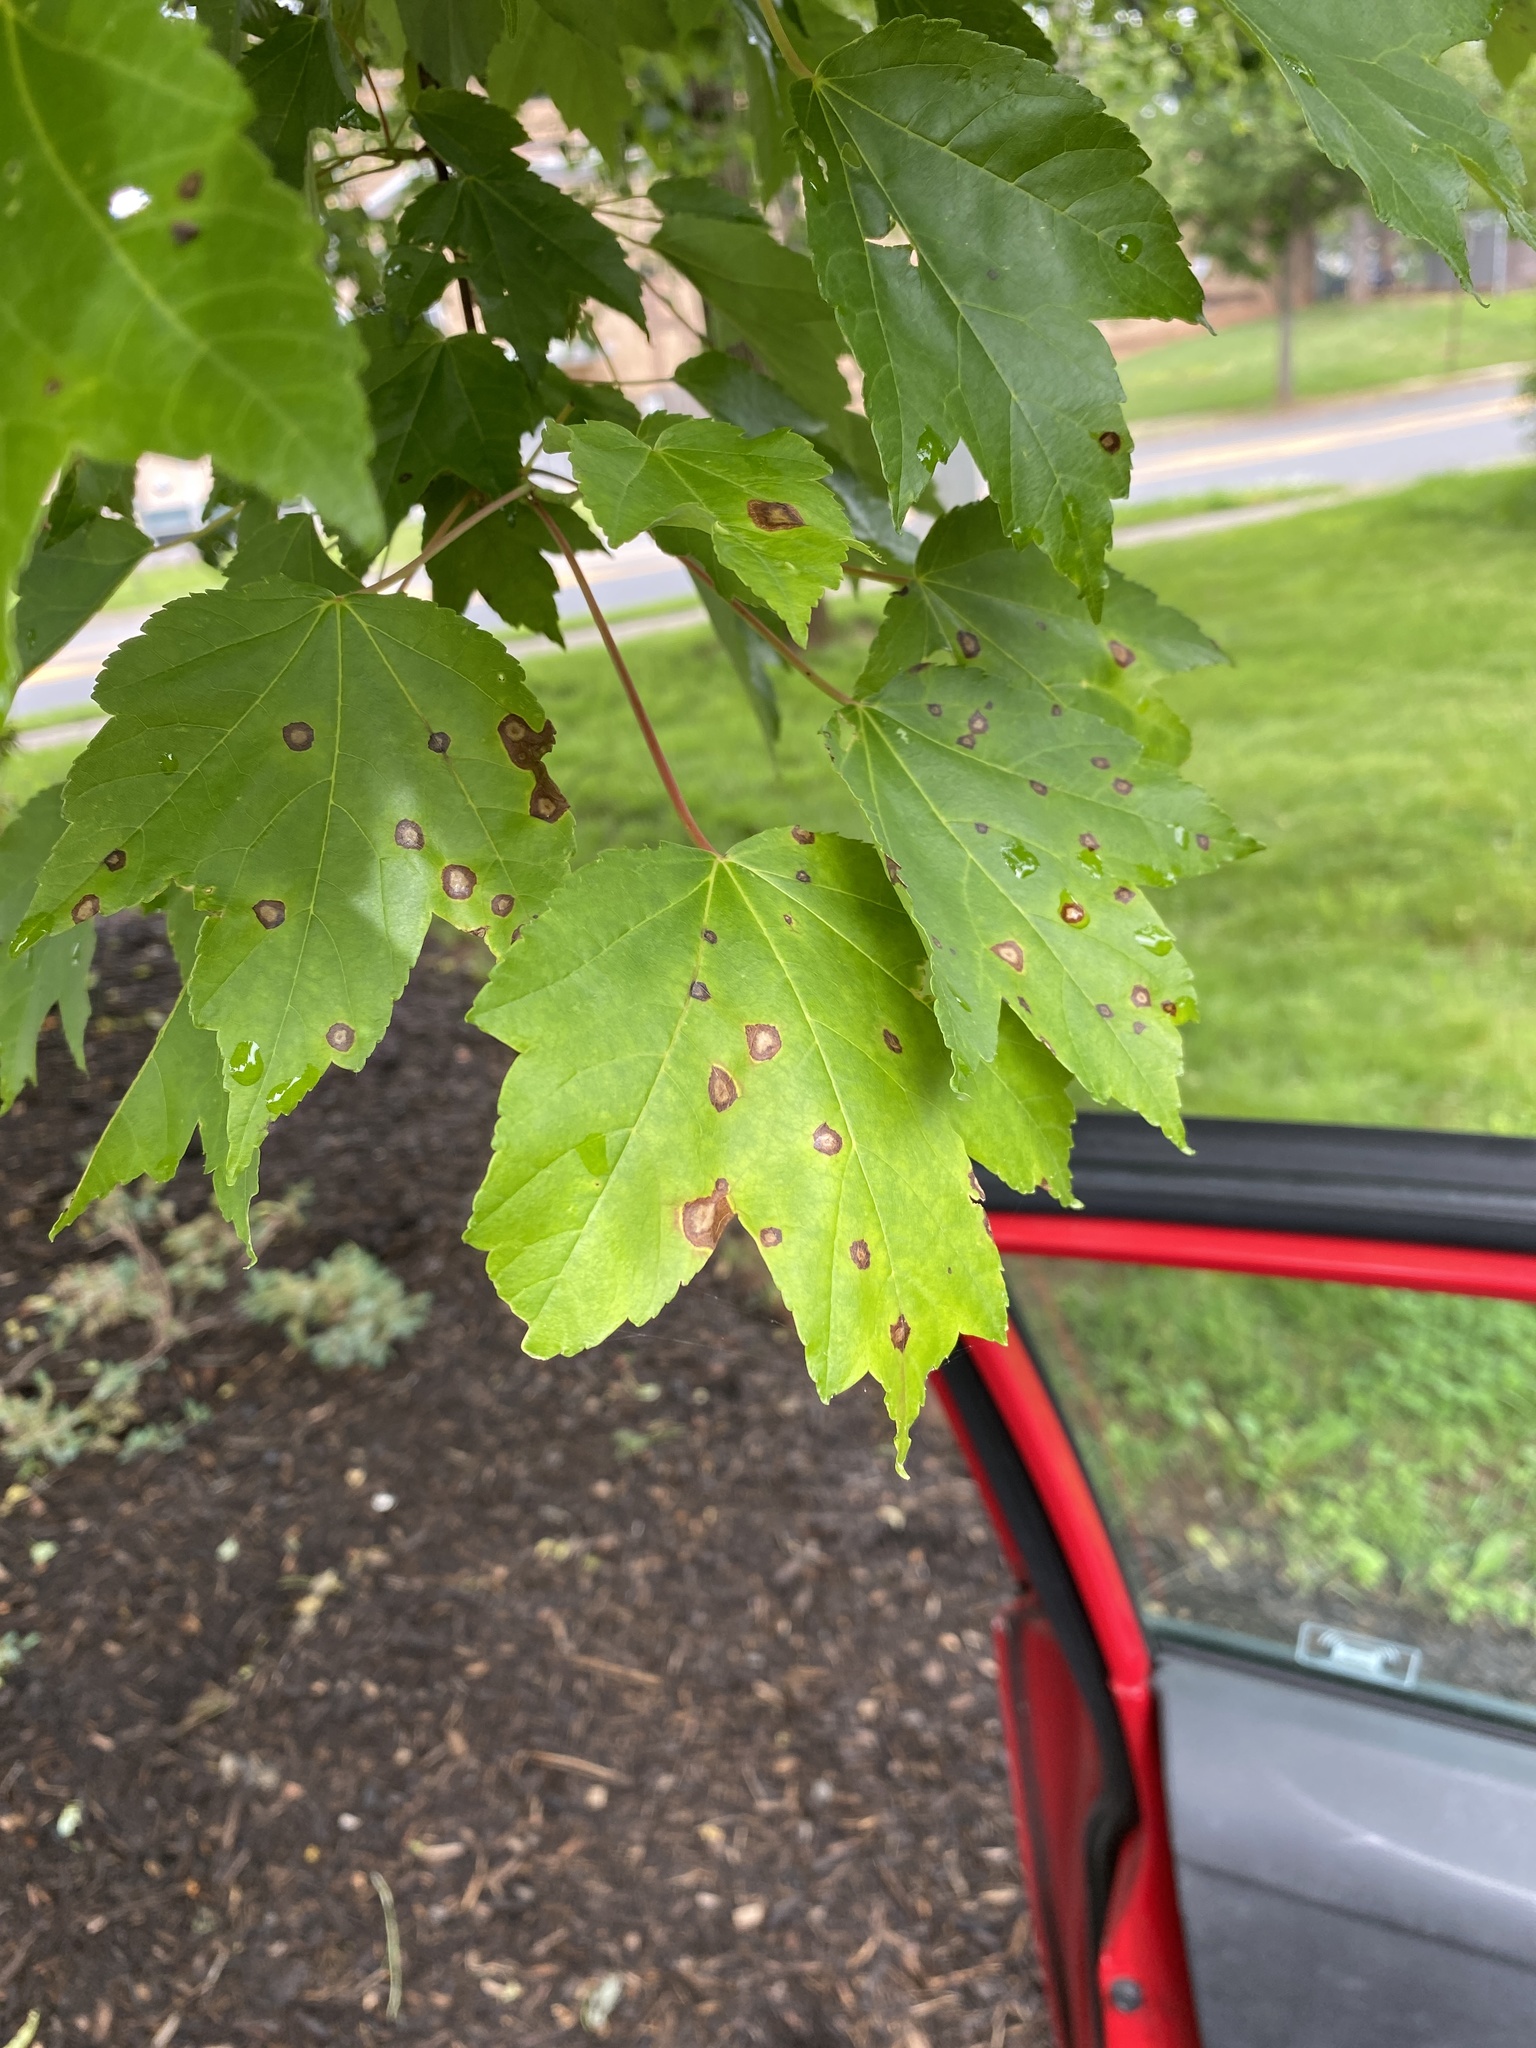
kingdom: Animalia
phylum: Arthropoda
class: Insecta
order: Diptera
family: Cecidomyiidae
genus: Acericecis
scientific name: Acericecis ocellaris
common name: Ocellate gall midge
